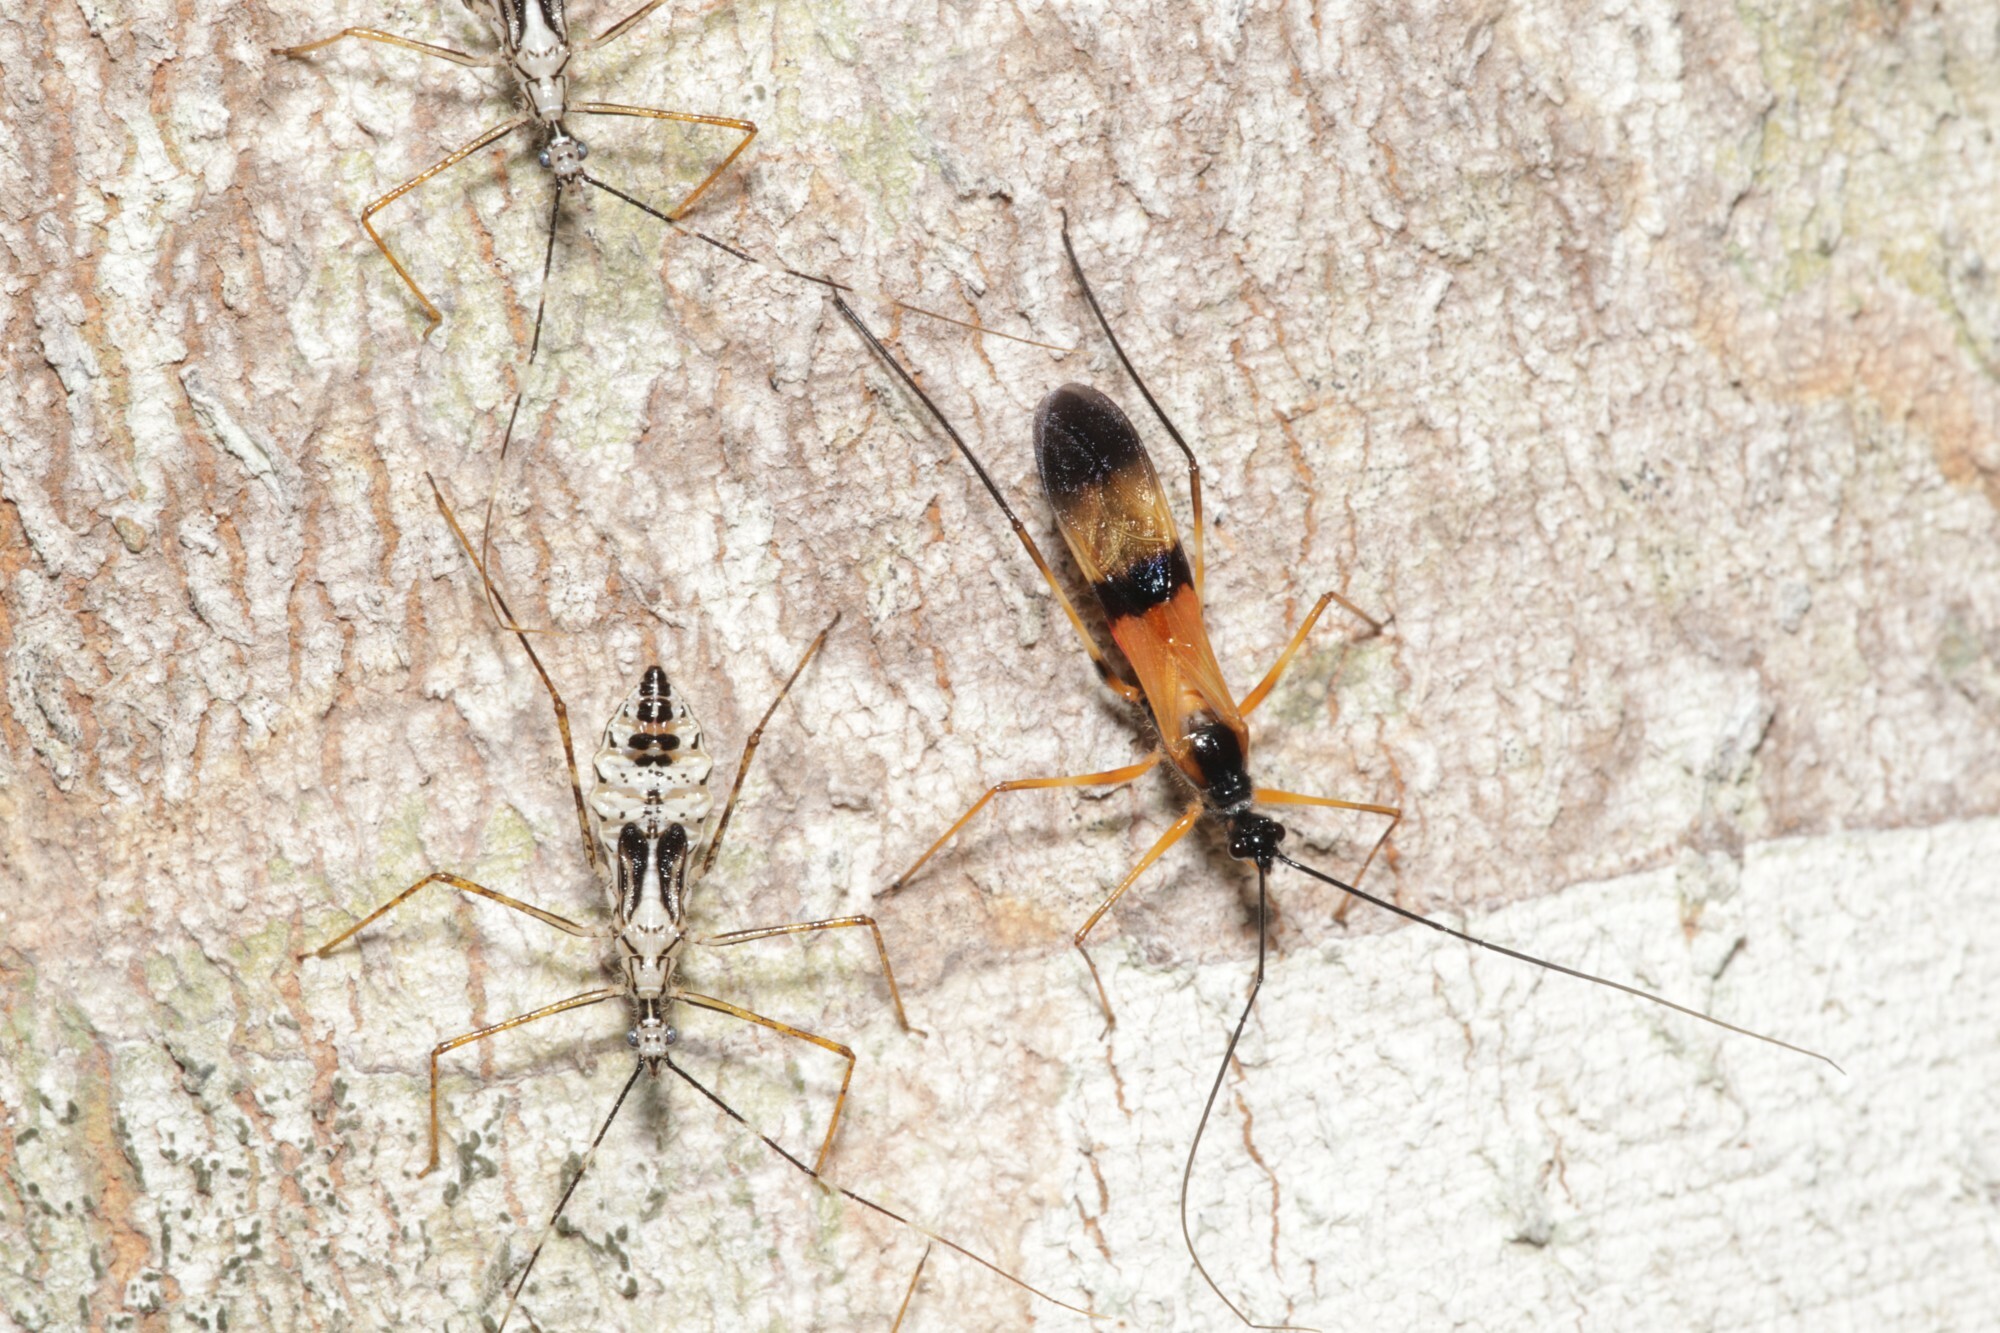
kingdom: Animalia
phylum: Arthropoda
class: Insecta
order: Hemiptera
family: Reduviidae
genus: Hiranetis
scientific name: Hiranetis braconiformis
